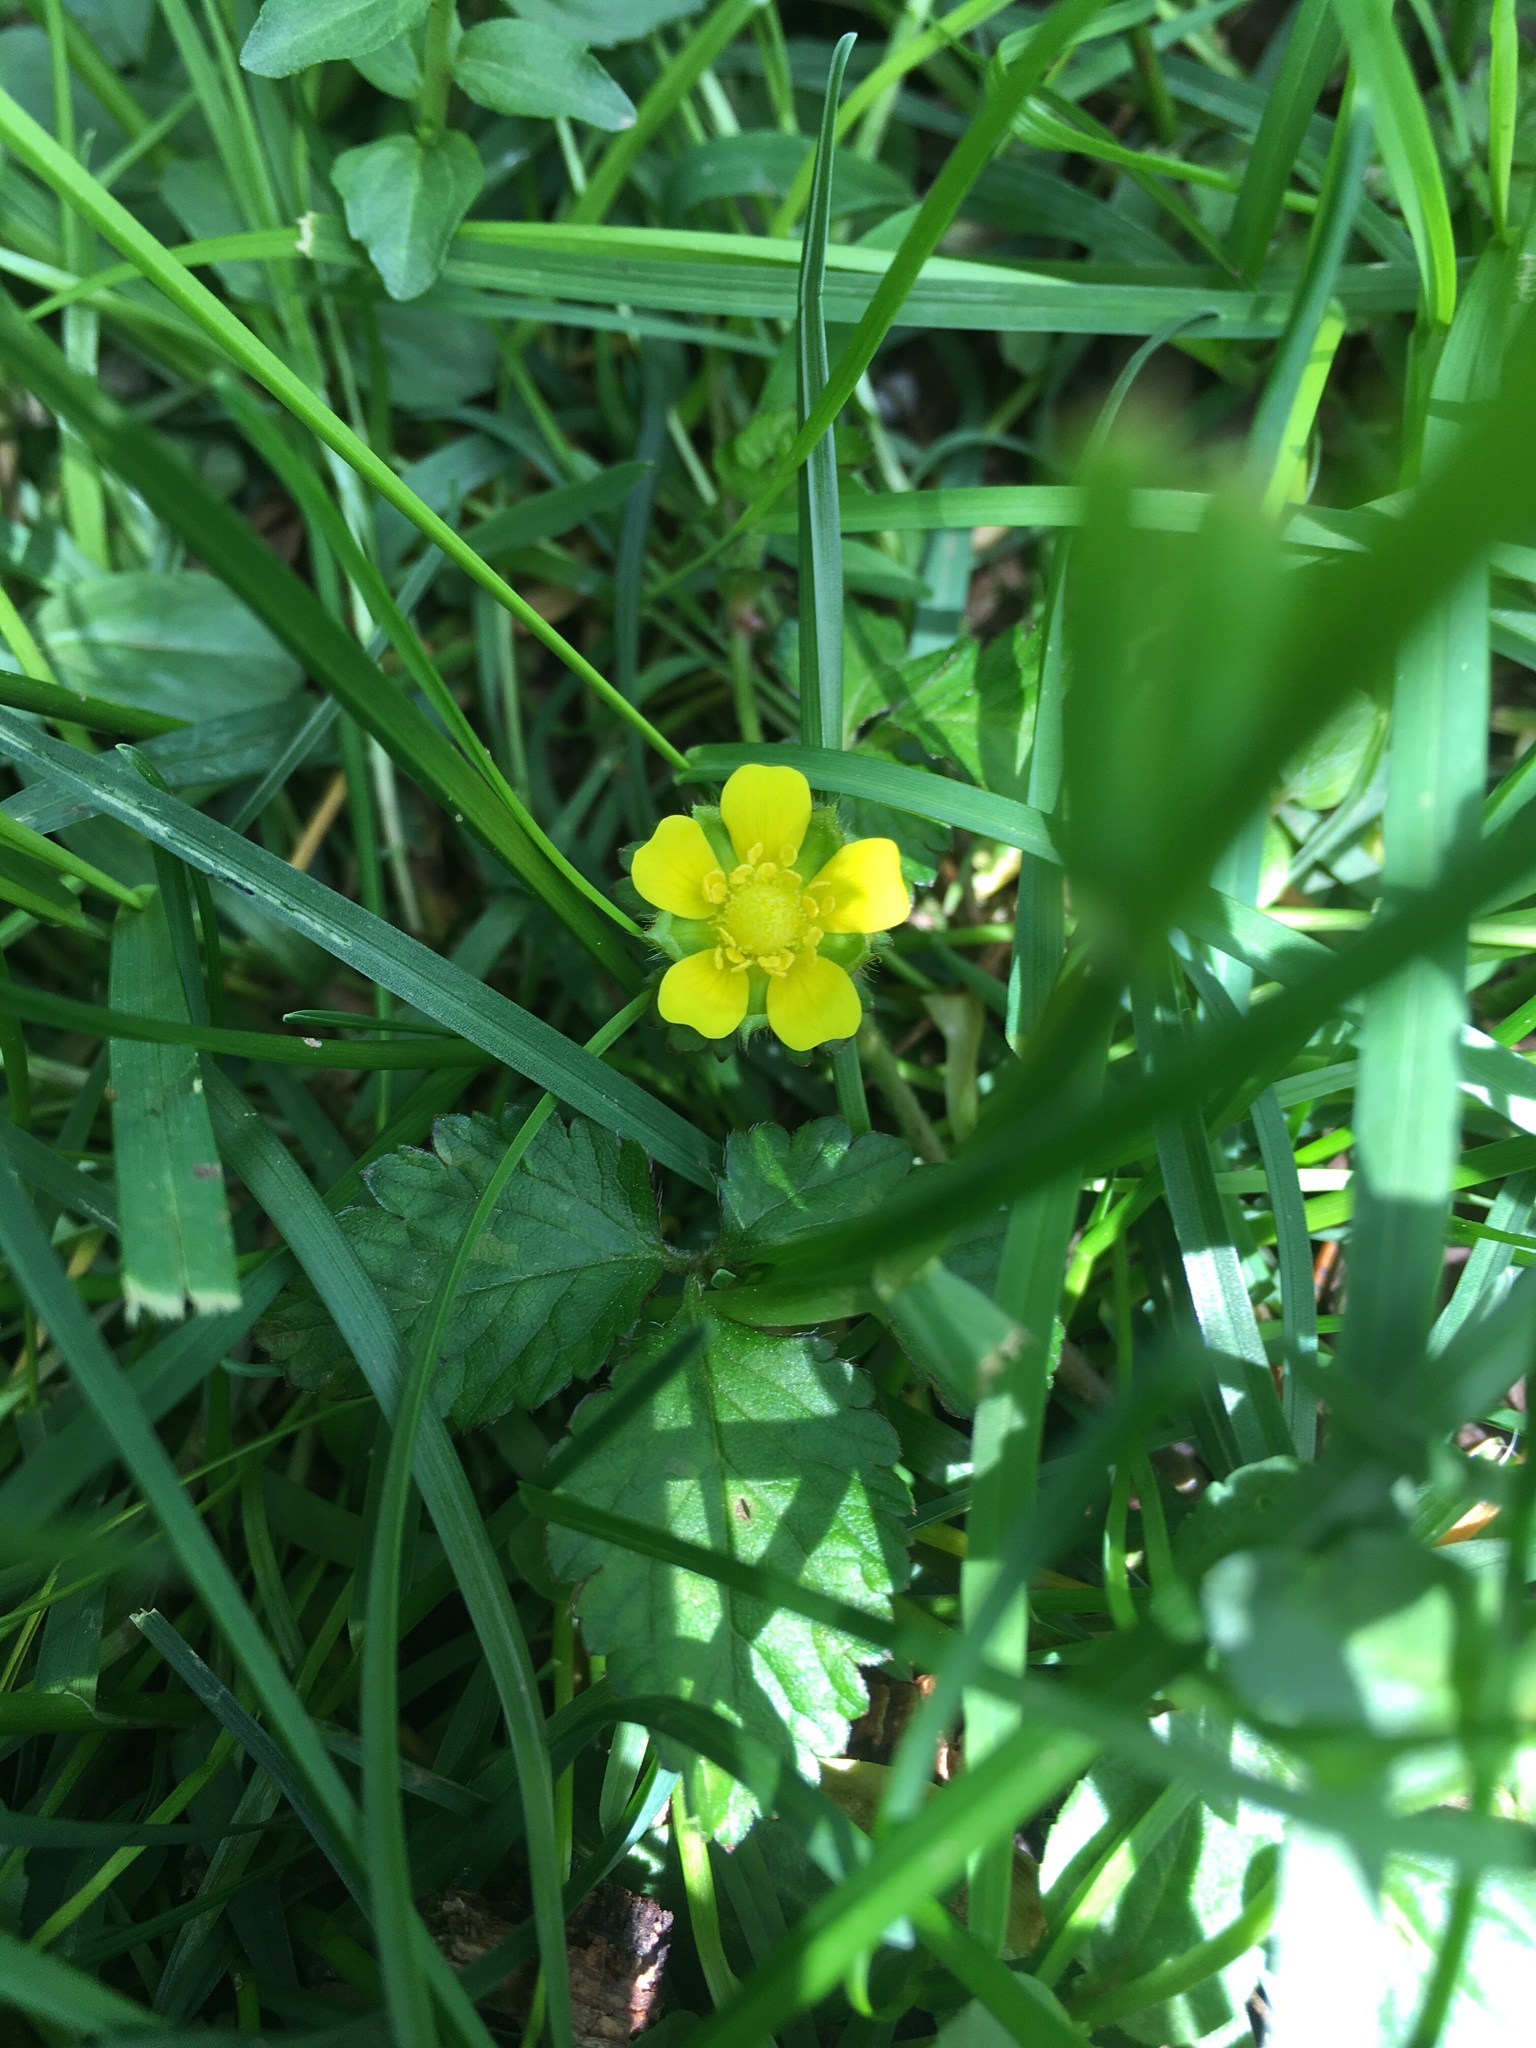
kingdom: Plantae
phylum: Tracheophyta
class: Magnoliopsida
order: Rosales
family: Rosaceae
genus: Potentilla
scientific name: Potentilla indica
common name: Yellow-flowered strawberry
